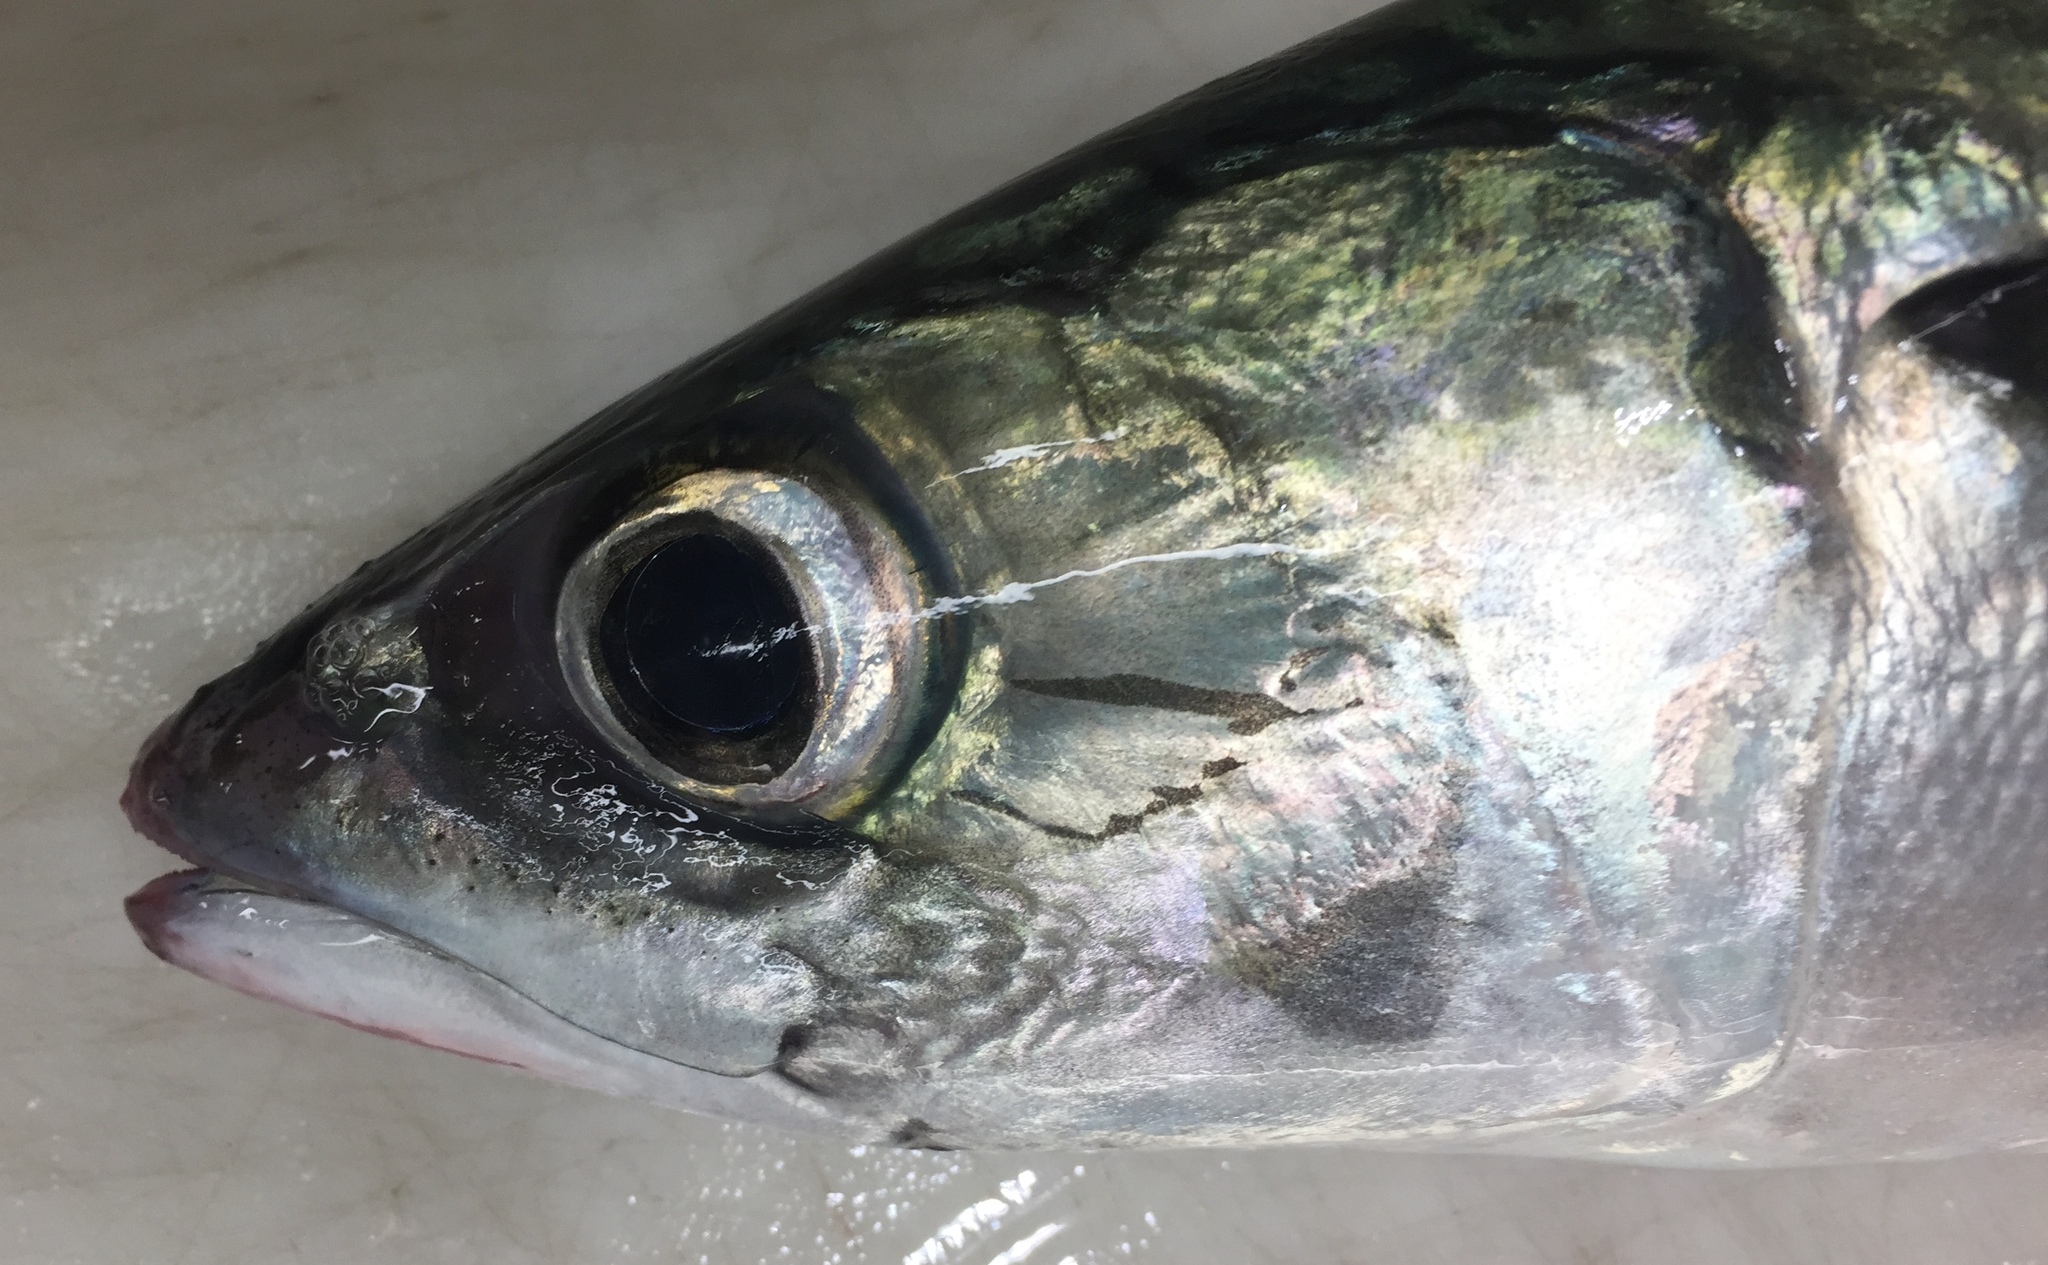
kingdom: Animalia
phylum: Chordata
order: Perciformes
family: Scombridae
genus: Scomber
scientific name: Scomber japonicus
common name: Chub mackerel
